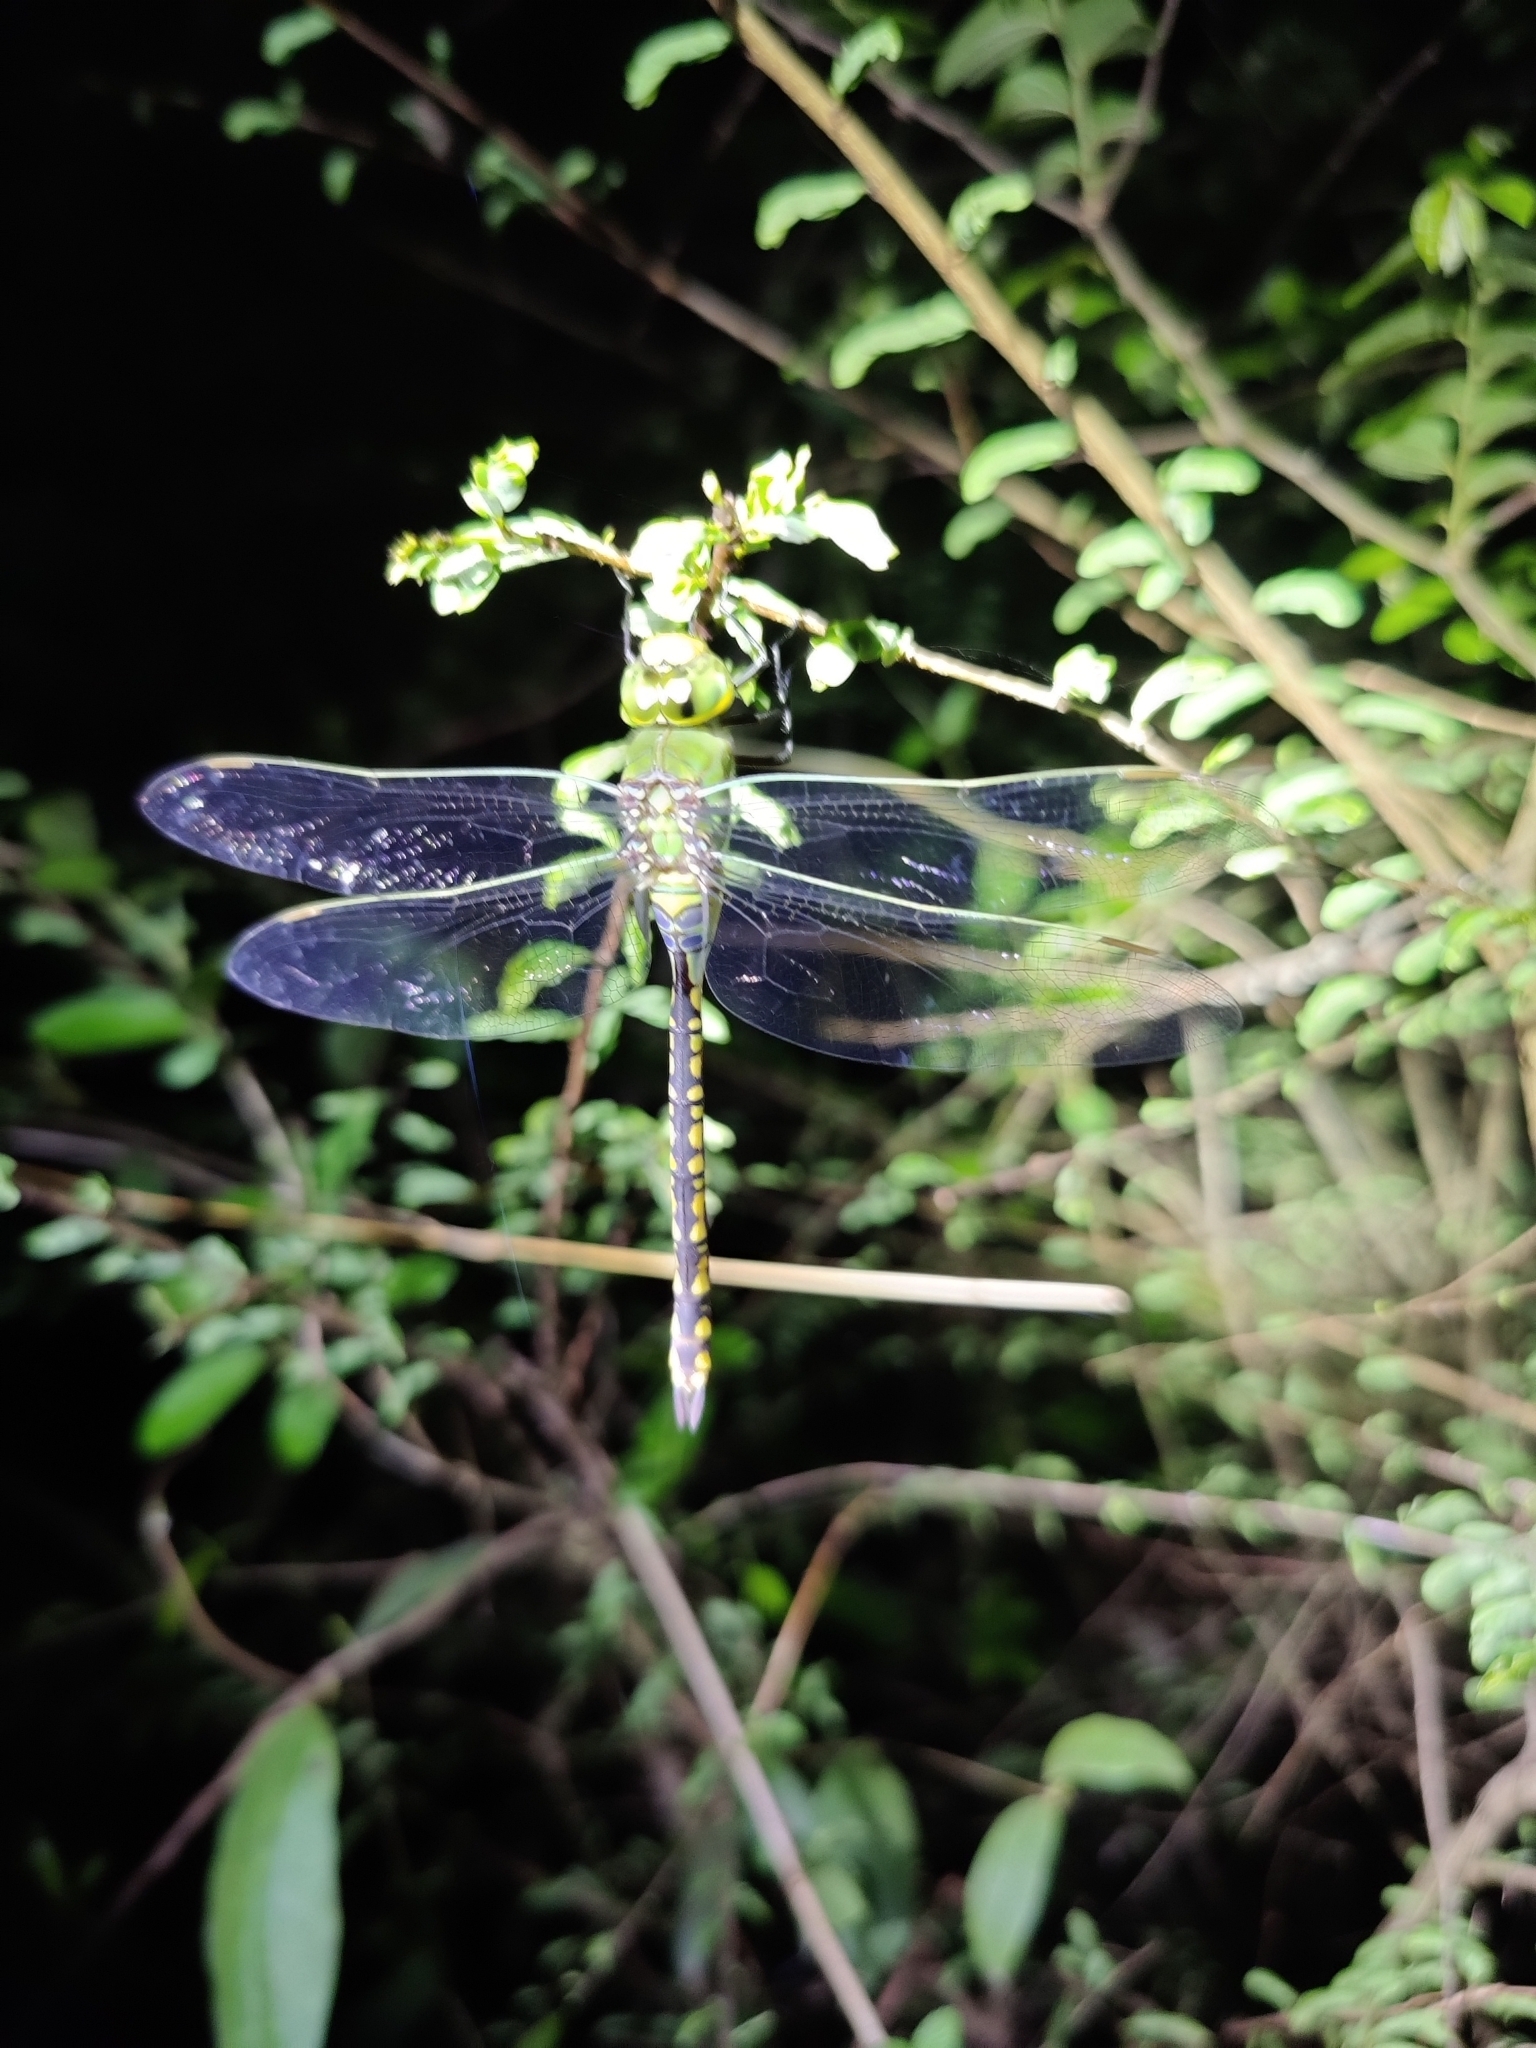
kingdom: Animalia
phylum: Arthropoda
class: Insecta
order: Odonata
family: Aeshnidae
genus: Anax
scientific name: Anax indicus
